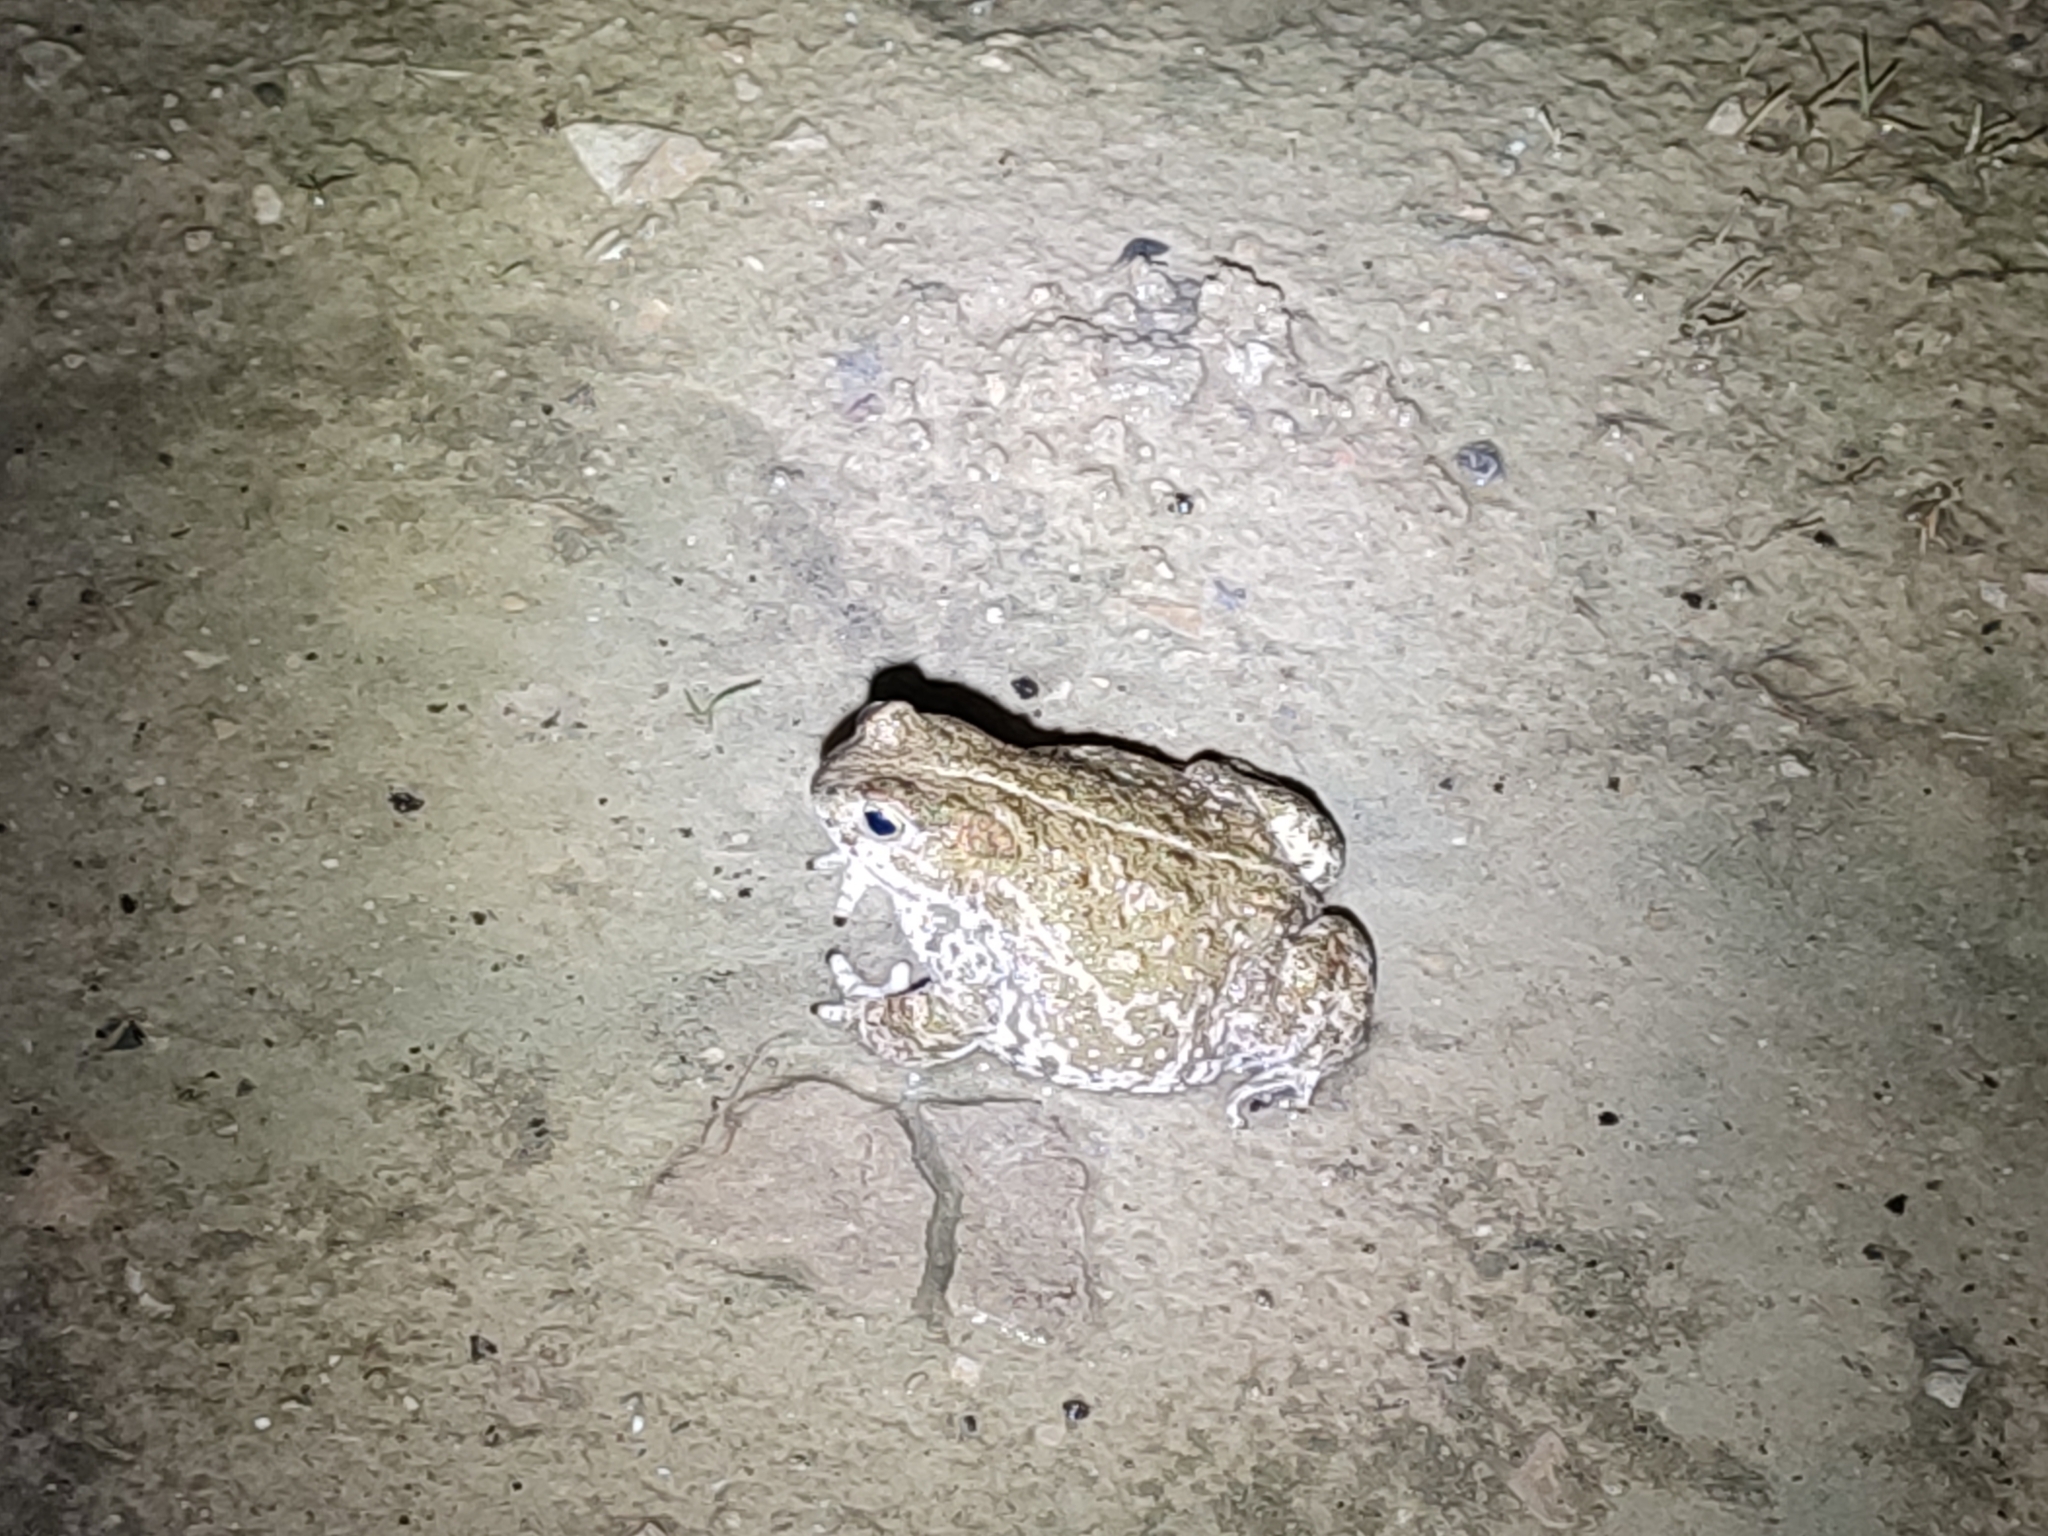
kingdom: Animalia
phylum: Chordata
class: Amphibia
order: Anura
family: Bufonidae
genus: Epidalea
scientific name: Epidalea calamita
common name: Natterjack toad
